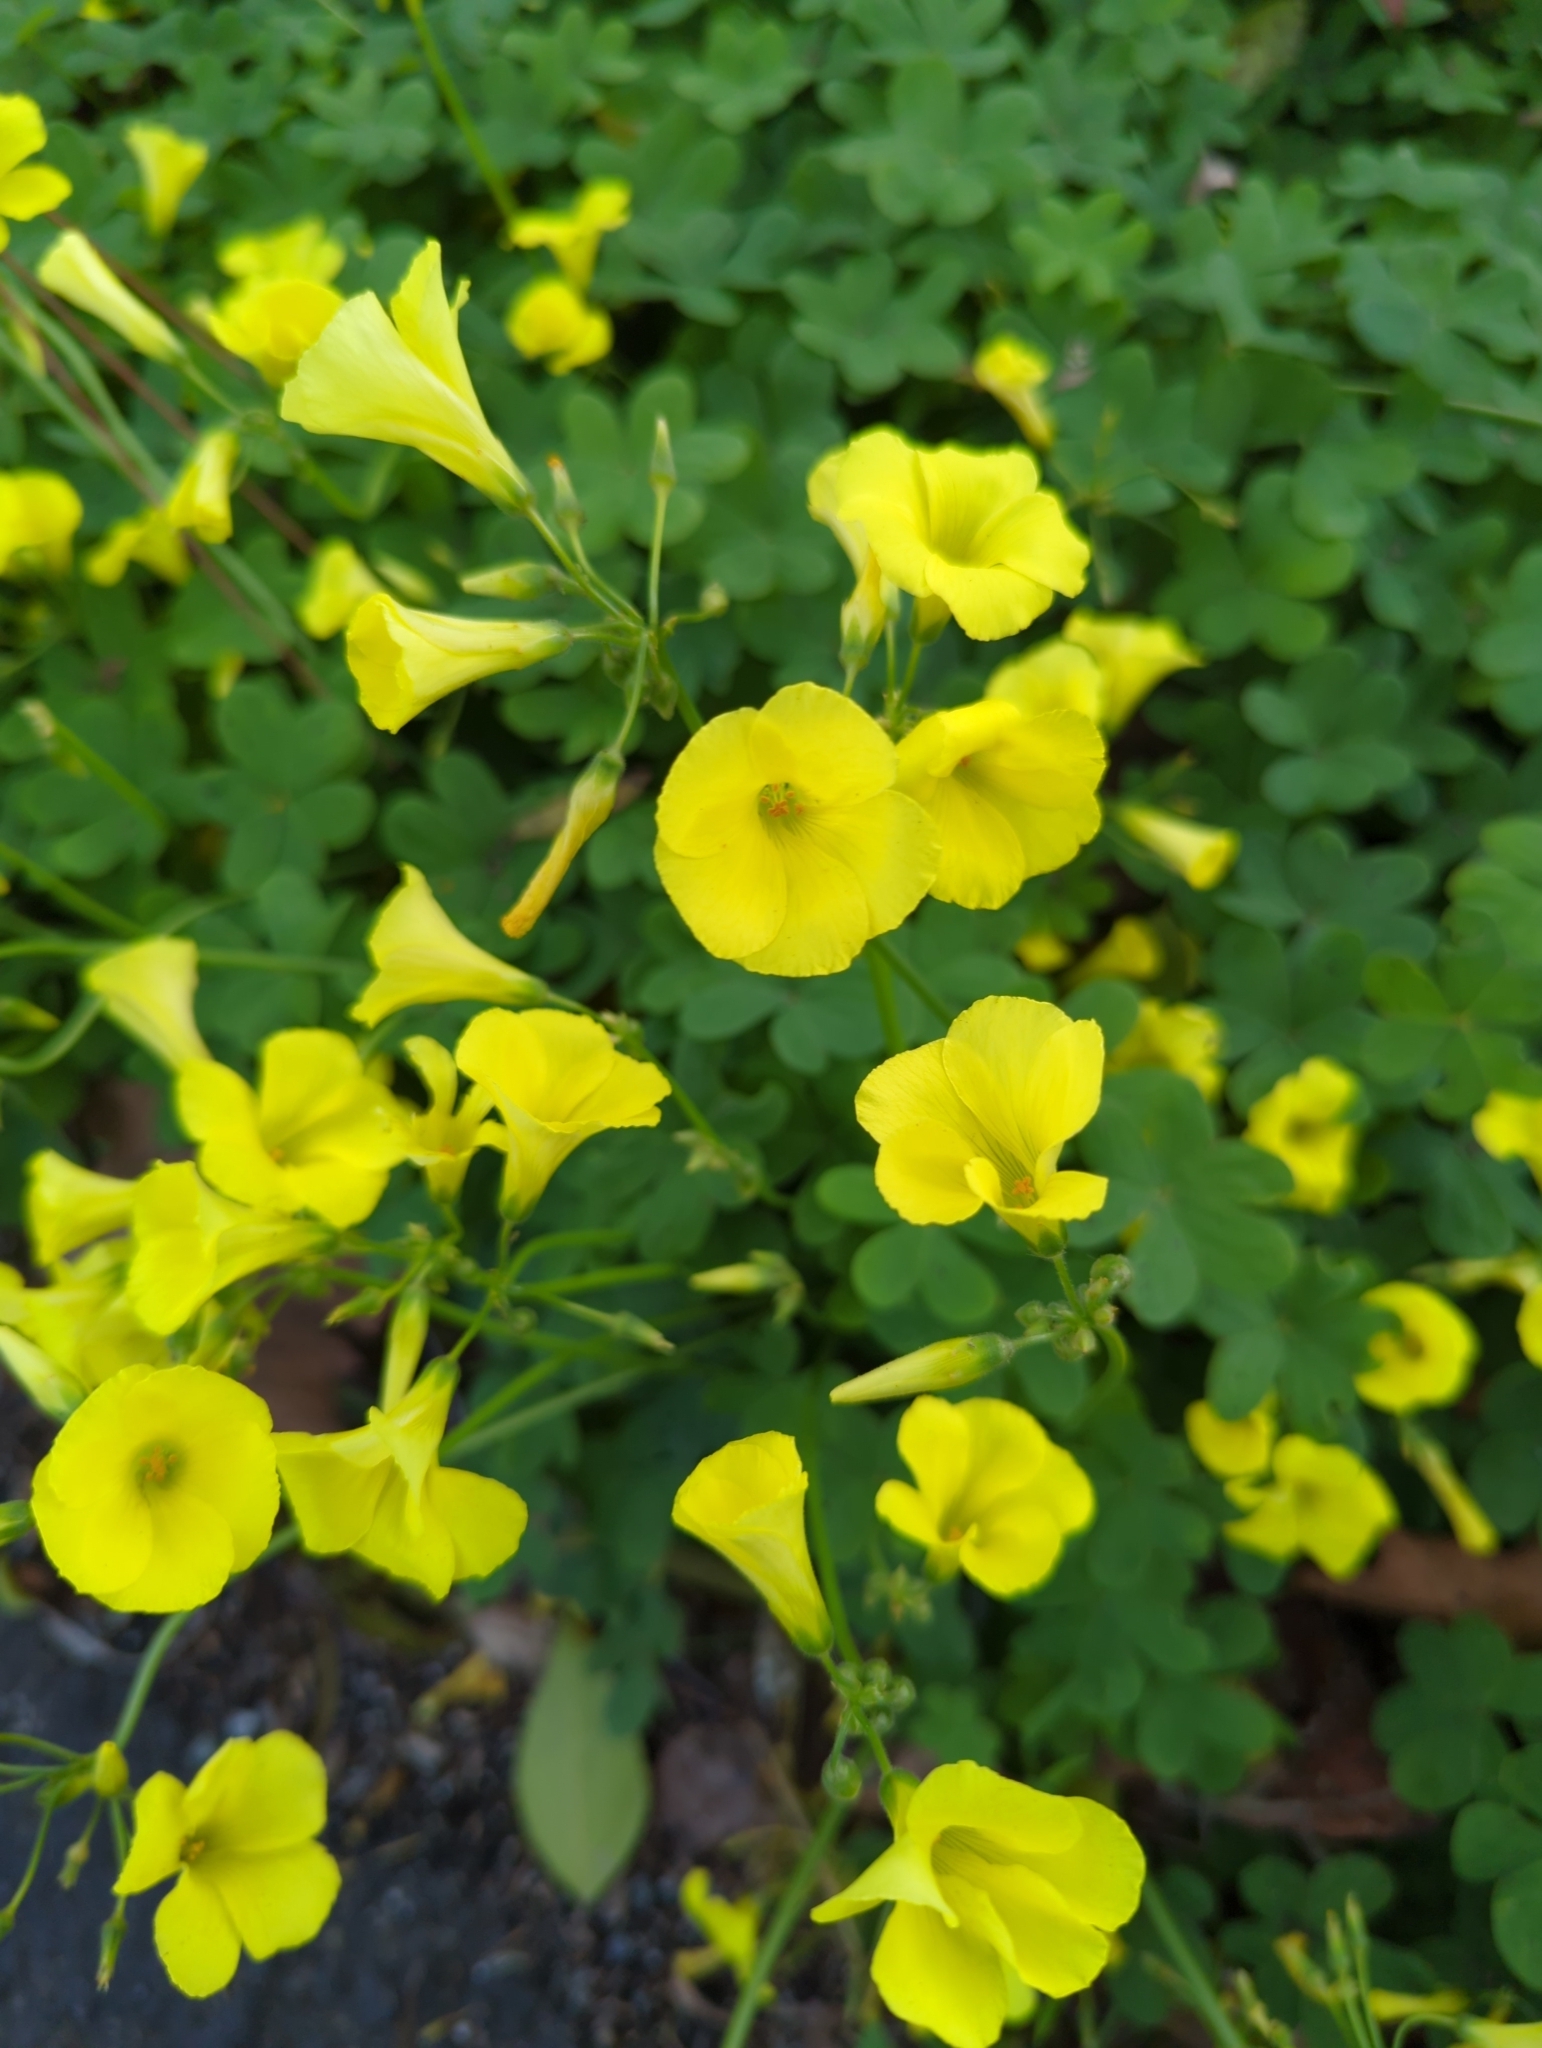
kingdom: Plantae
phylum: Tracheophyta
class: Magnoliopsida
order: Oxalidales
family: Oxalidaceae
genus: Oxalis
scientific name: Oxalis pes-caprae
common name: Bermuda-buttercup
